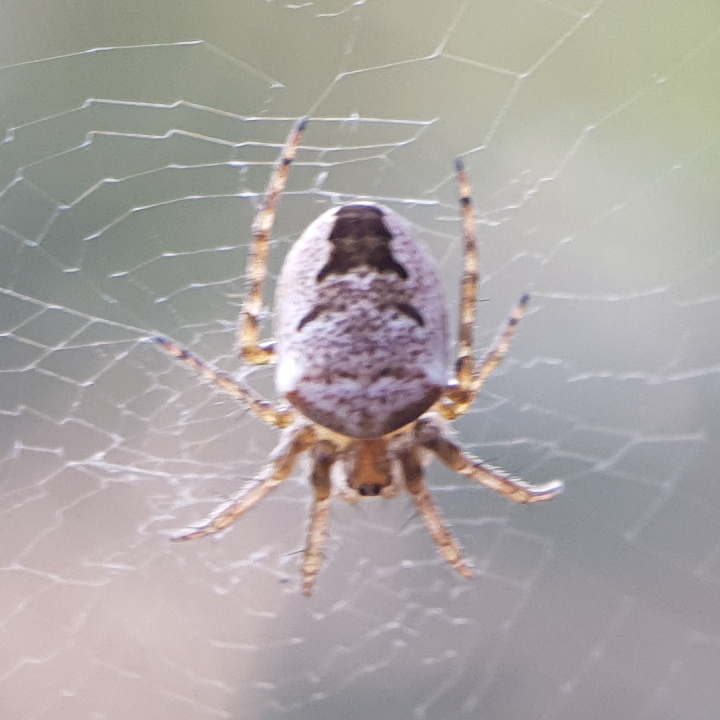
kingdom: Animalia
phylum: Arthropoda
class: Arachnida
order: Araneae
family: Araneidae
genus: Zilla
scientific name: Zilla diodia
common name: Zilla diodia
